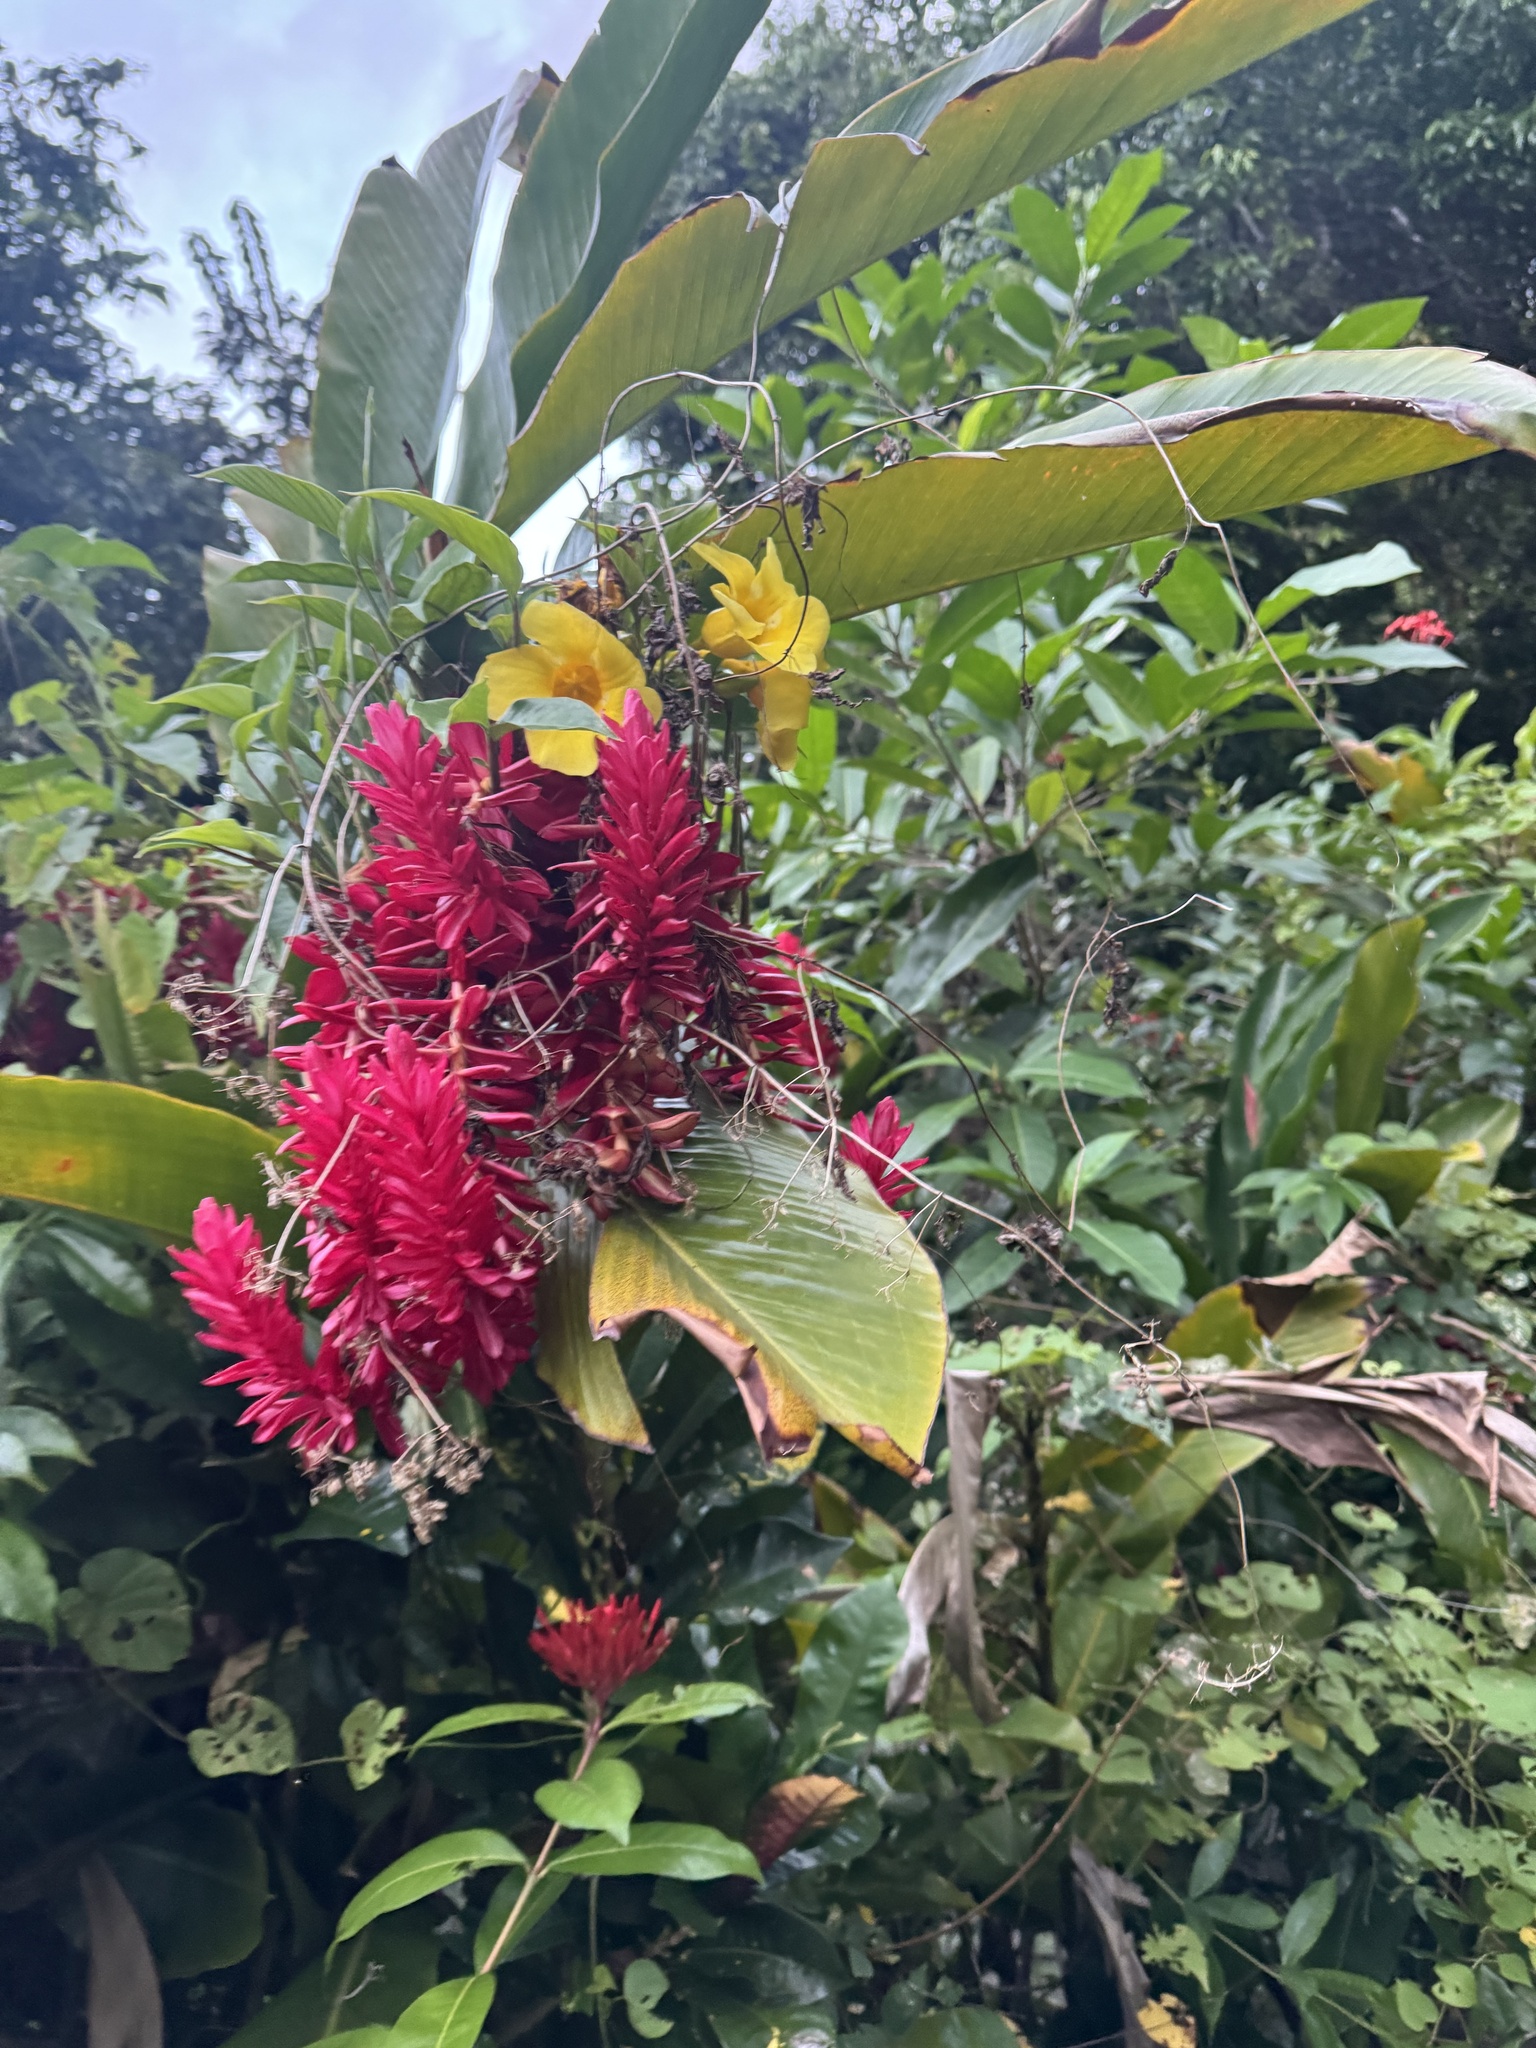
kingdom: Plantae
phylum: Tracheophyta
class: Liliopsida
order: Zingiberales
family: Zingiberaceae
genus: Alpinia
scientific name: Alpinia purpurata
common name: Red ginger
